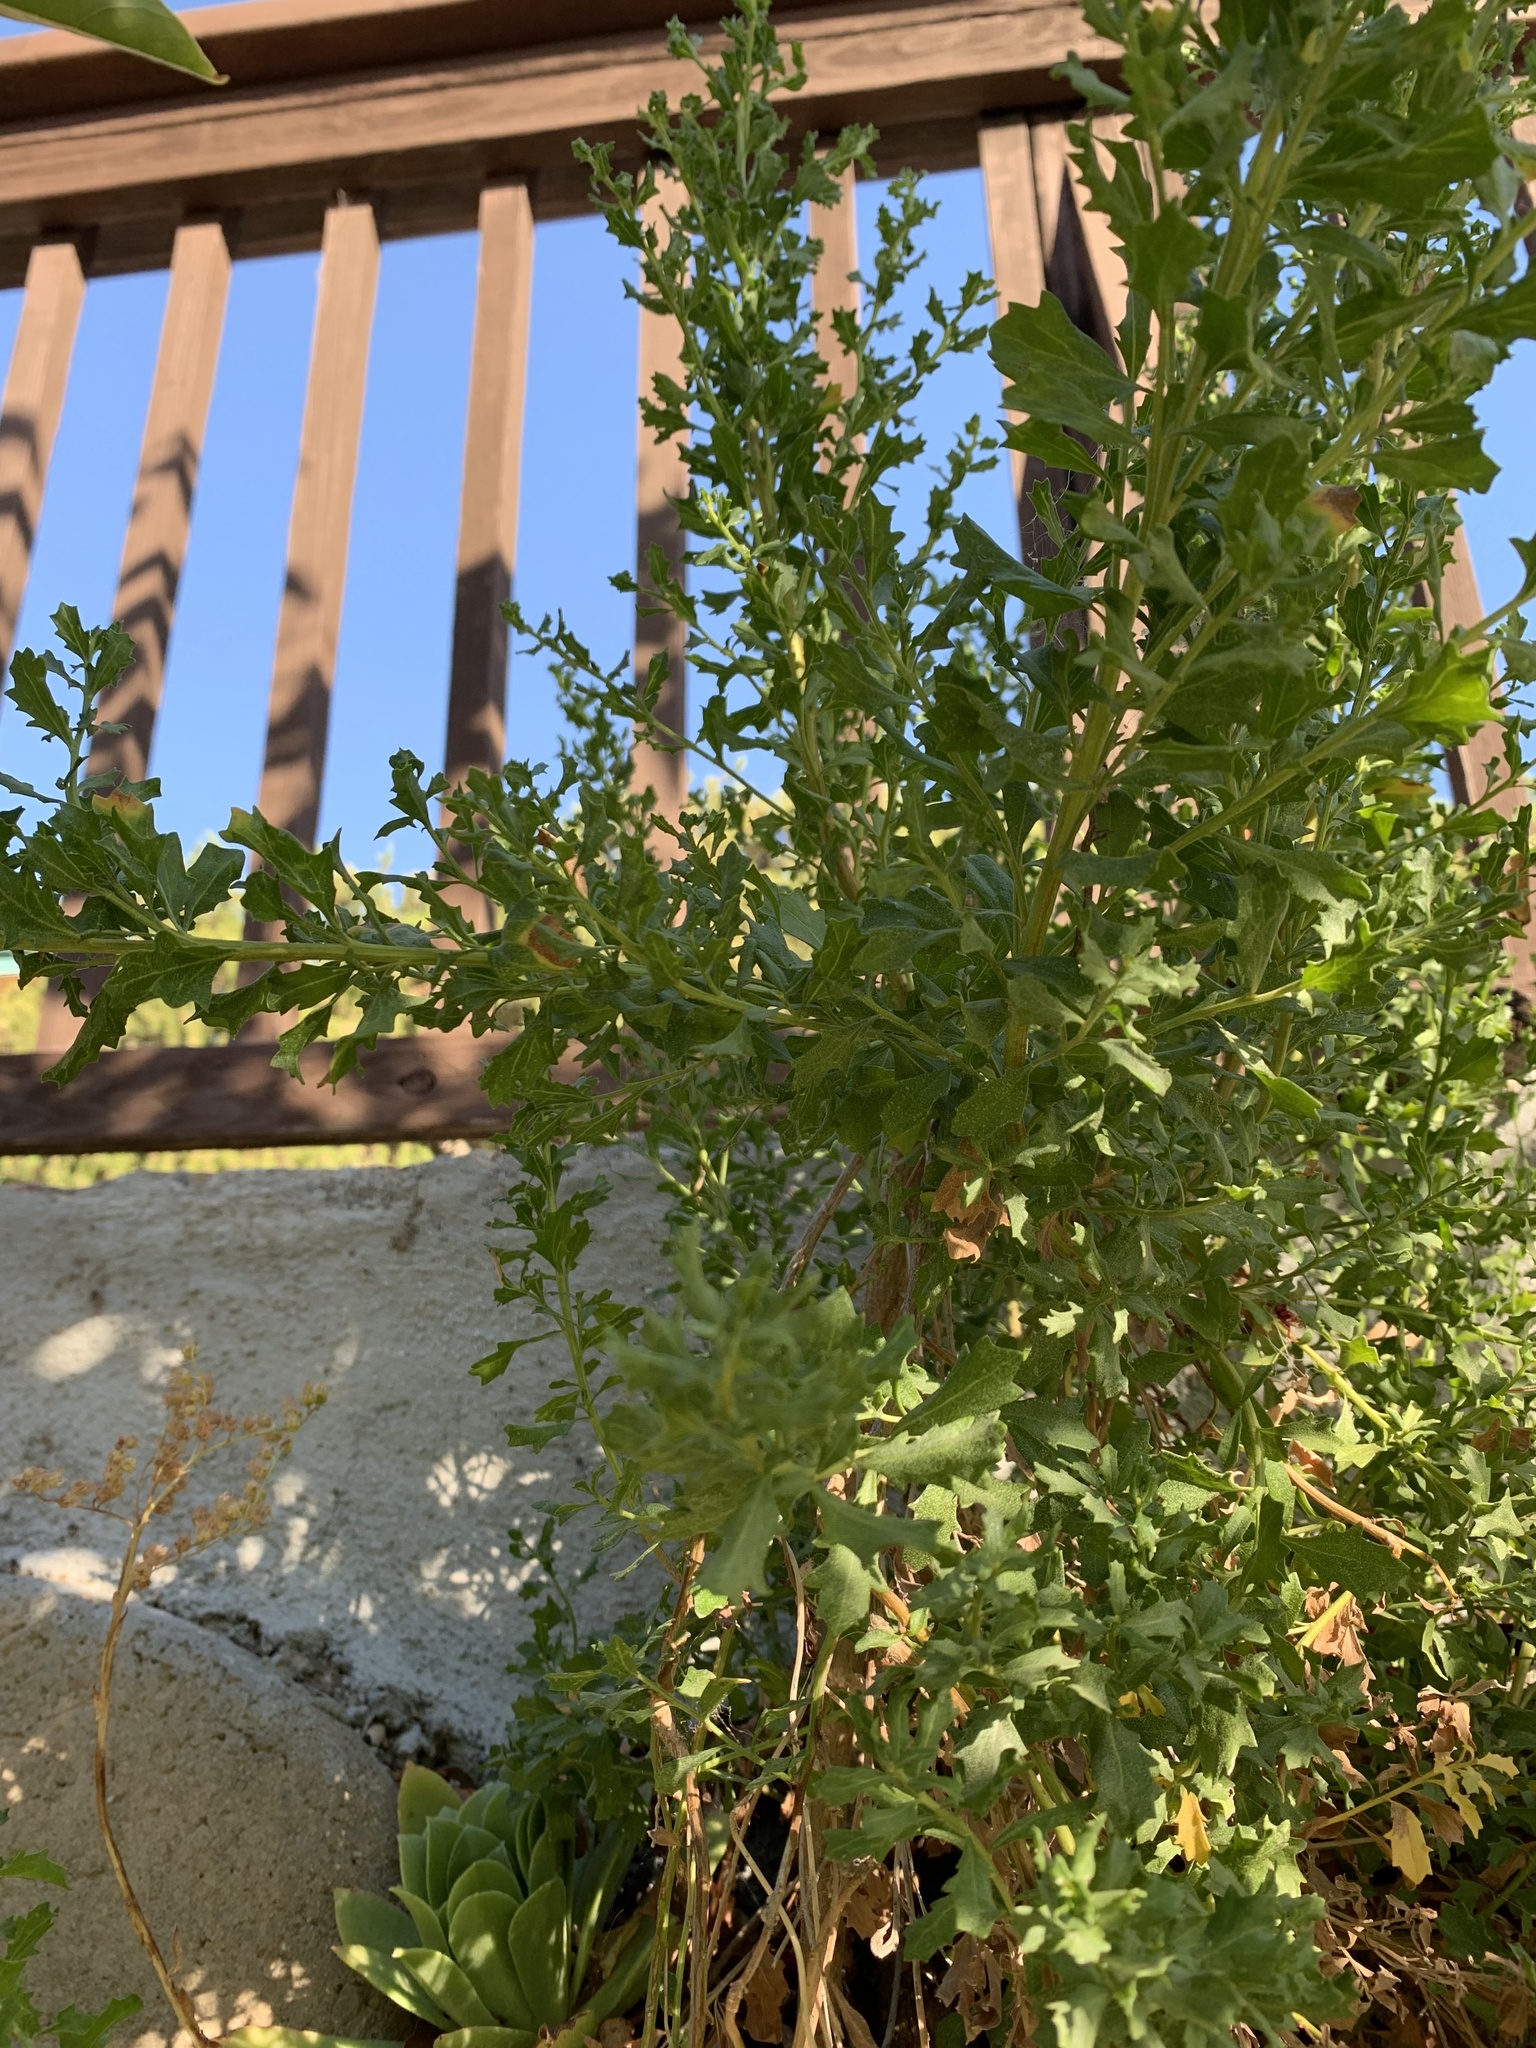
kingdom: Plantae
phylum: Tracheophyta
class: Magnoliopsida
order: Asterales
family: Asteraceae
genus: Baccharis
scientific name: Baccharis pilularis
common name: Coyotebrush
